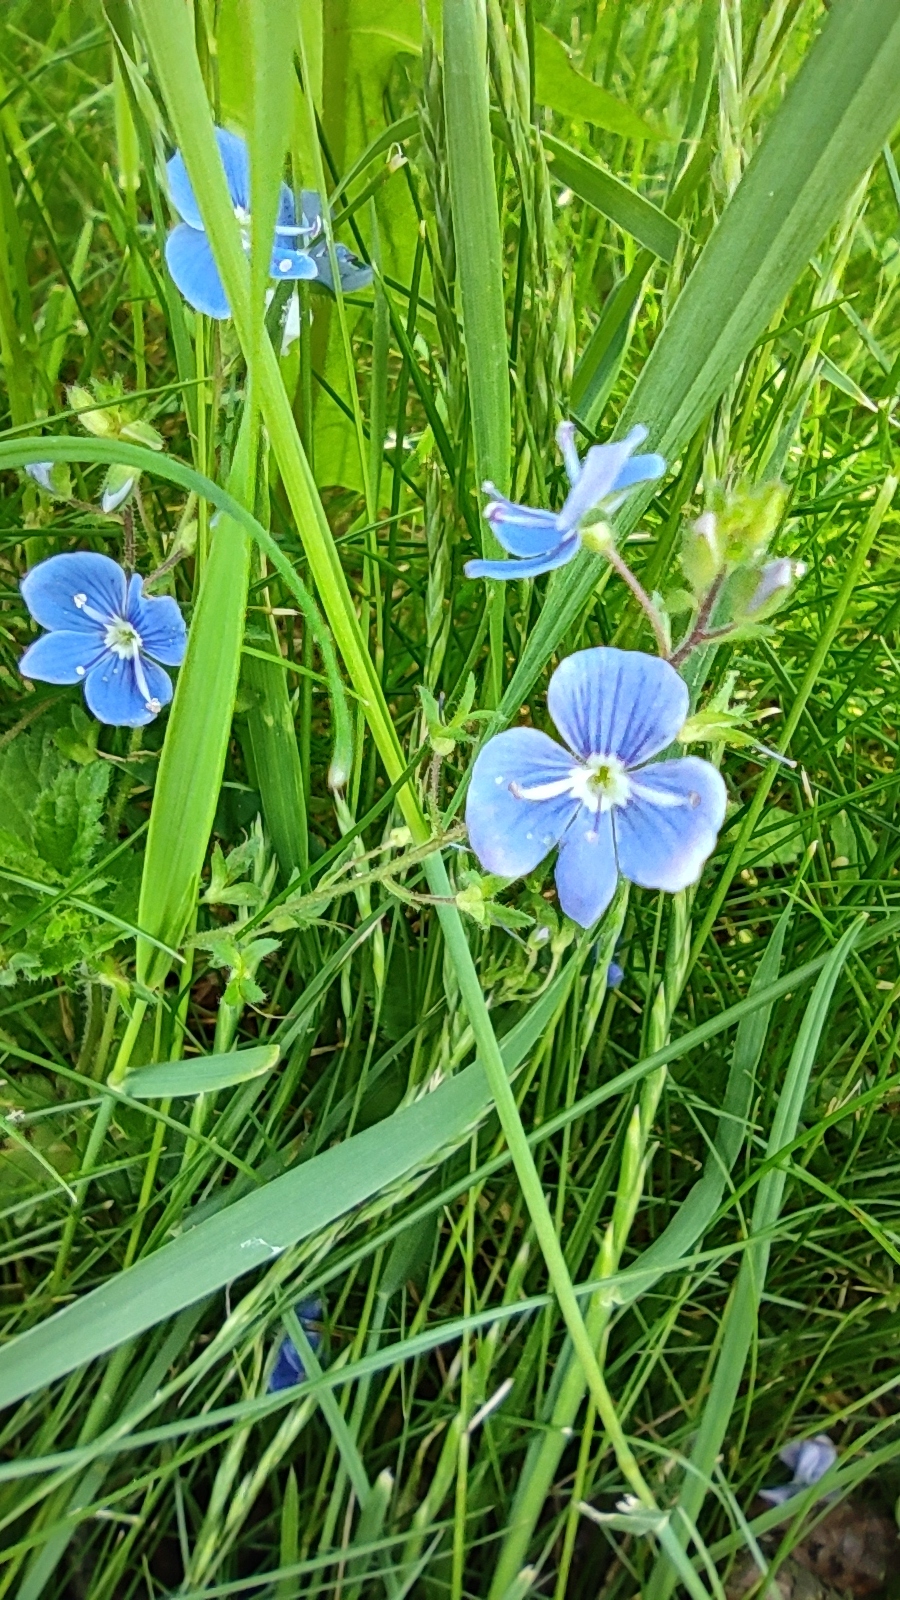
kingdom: Plantae
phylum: Tracheophyta
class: Magnoliopsida
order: Lamiales
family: Plantaginaceae
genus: Veronica
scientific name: Veronica chamaedrys
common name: Germander speedwell
